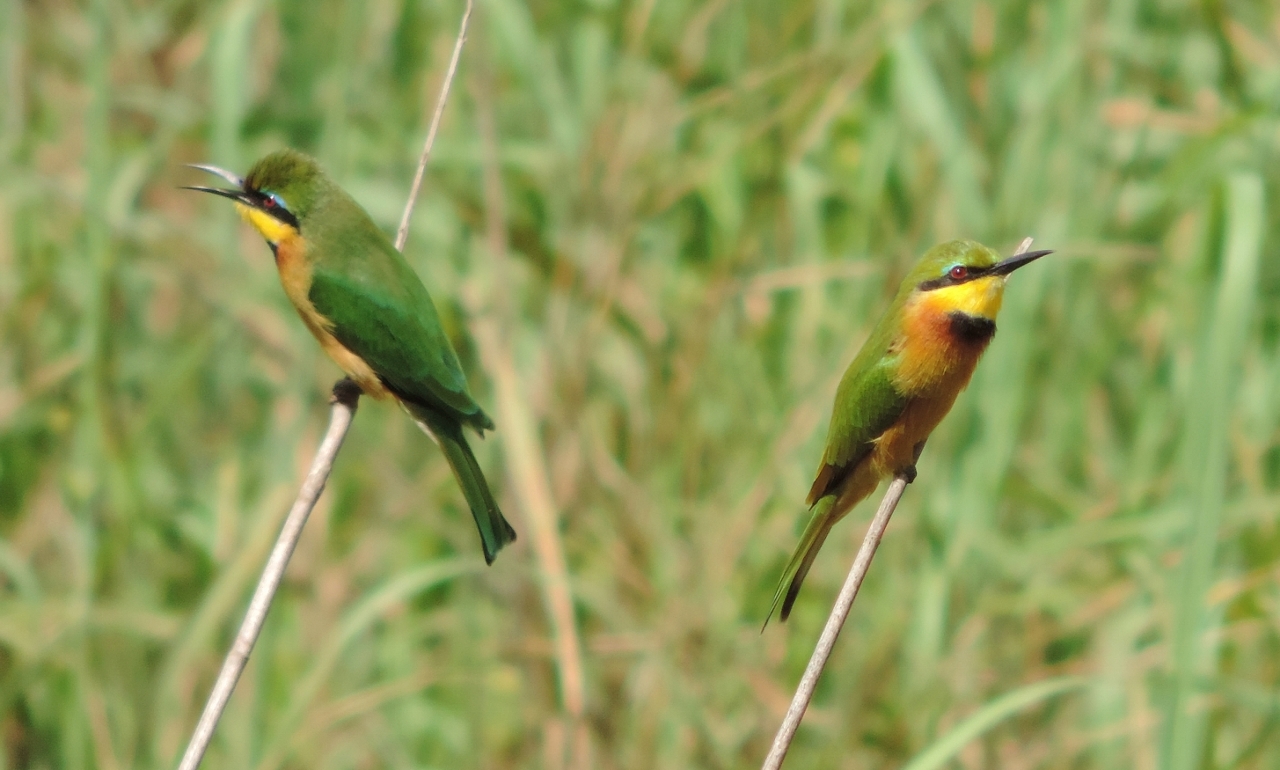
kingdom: Animalia
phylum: Chordata
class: Aves
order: Coraciiformes
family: Meropidae
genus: Merops
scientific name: Merops pusillus
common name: Little bee-eater
